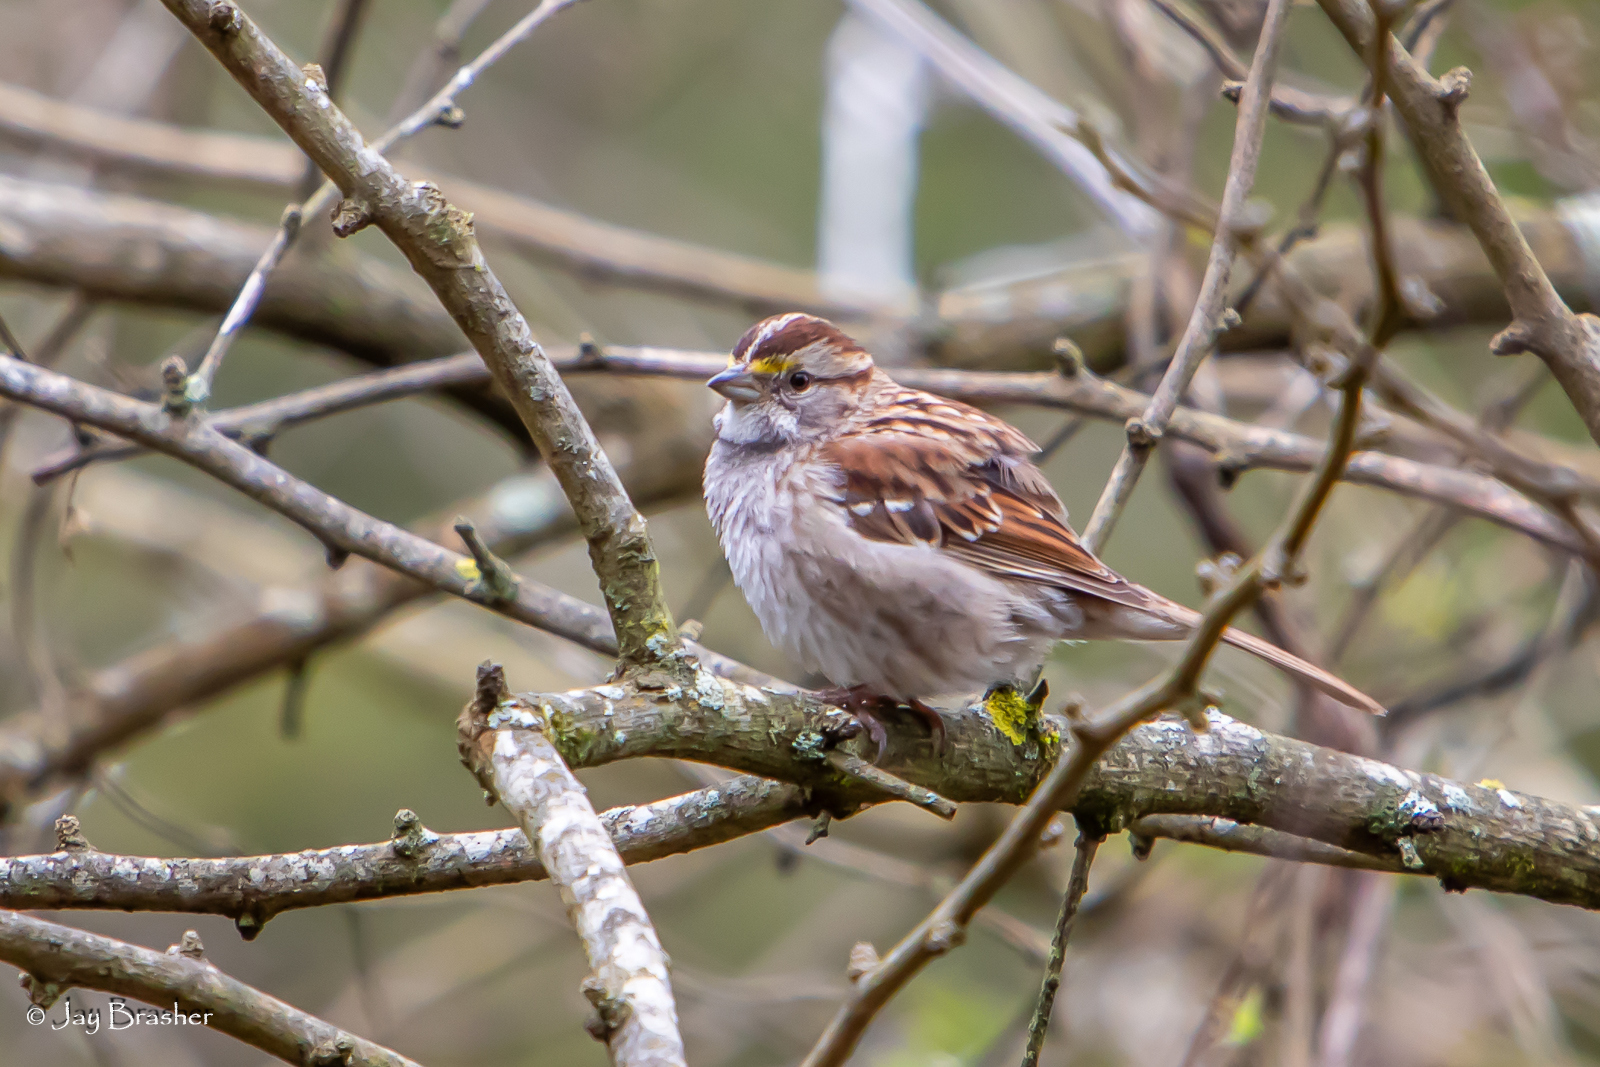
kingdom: Animalia
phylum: Chordata
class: Aves
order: Passeriformes
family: Passerellidae
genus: Zonotrichia
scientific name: Zonotrichia albicollis
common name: White-throated sparrow
